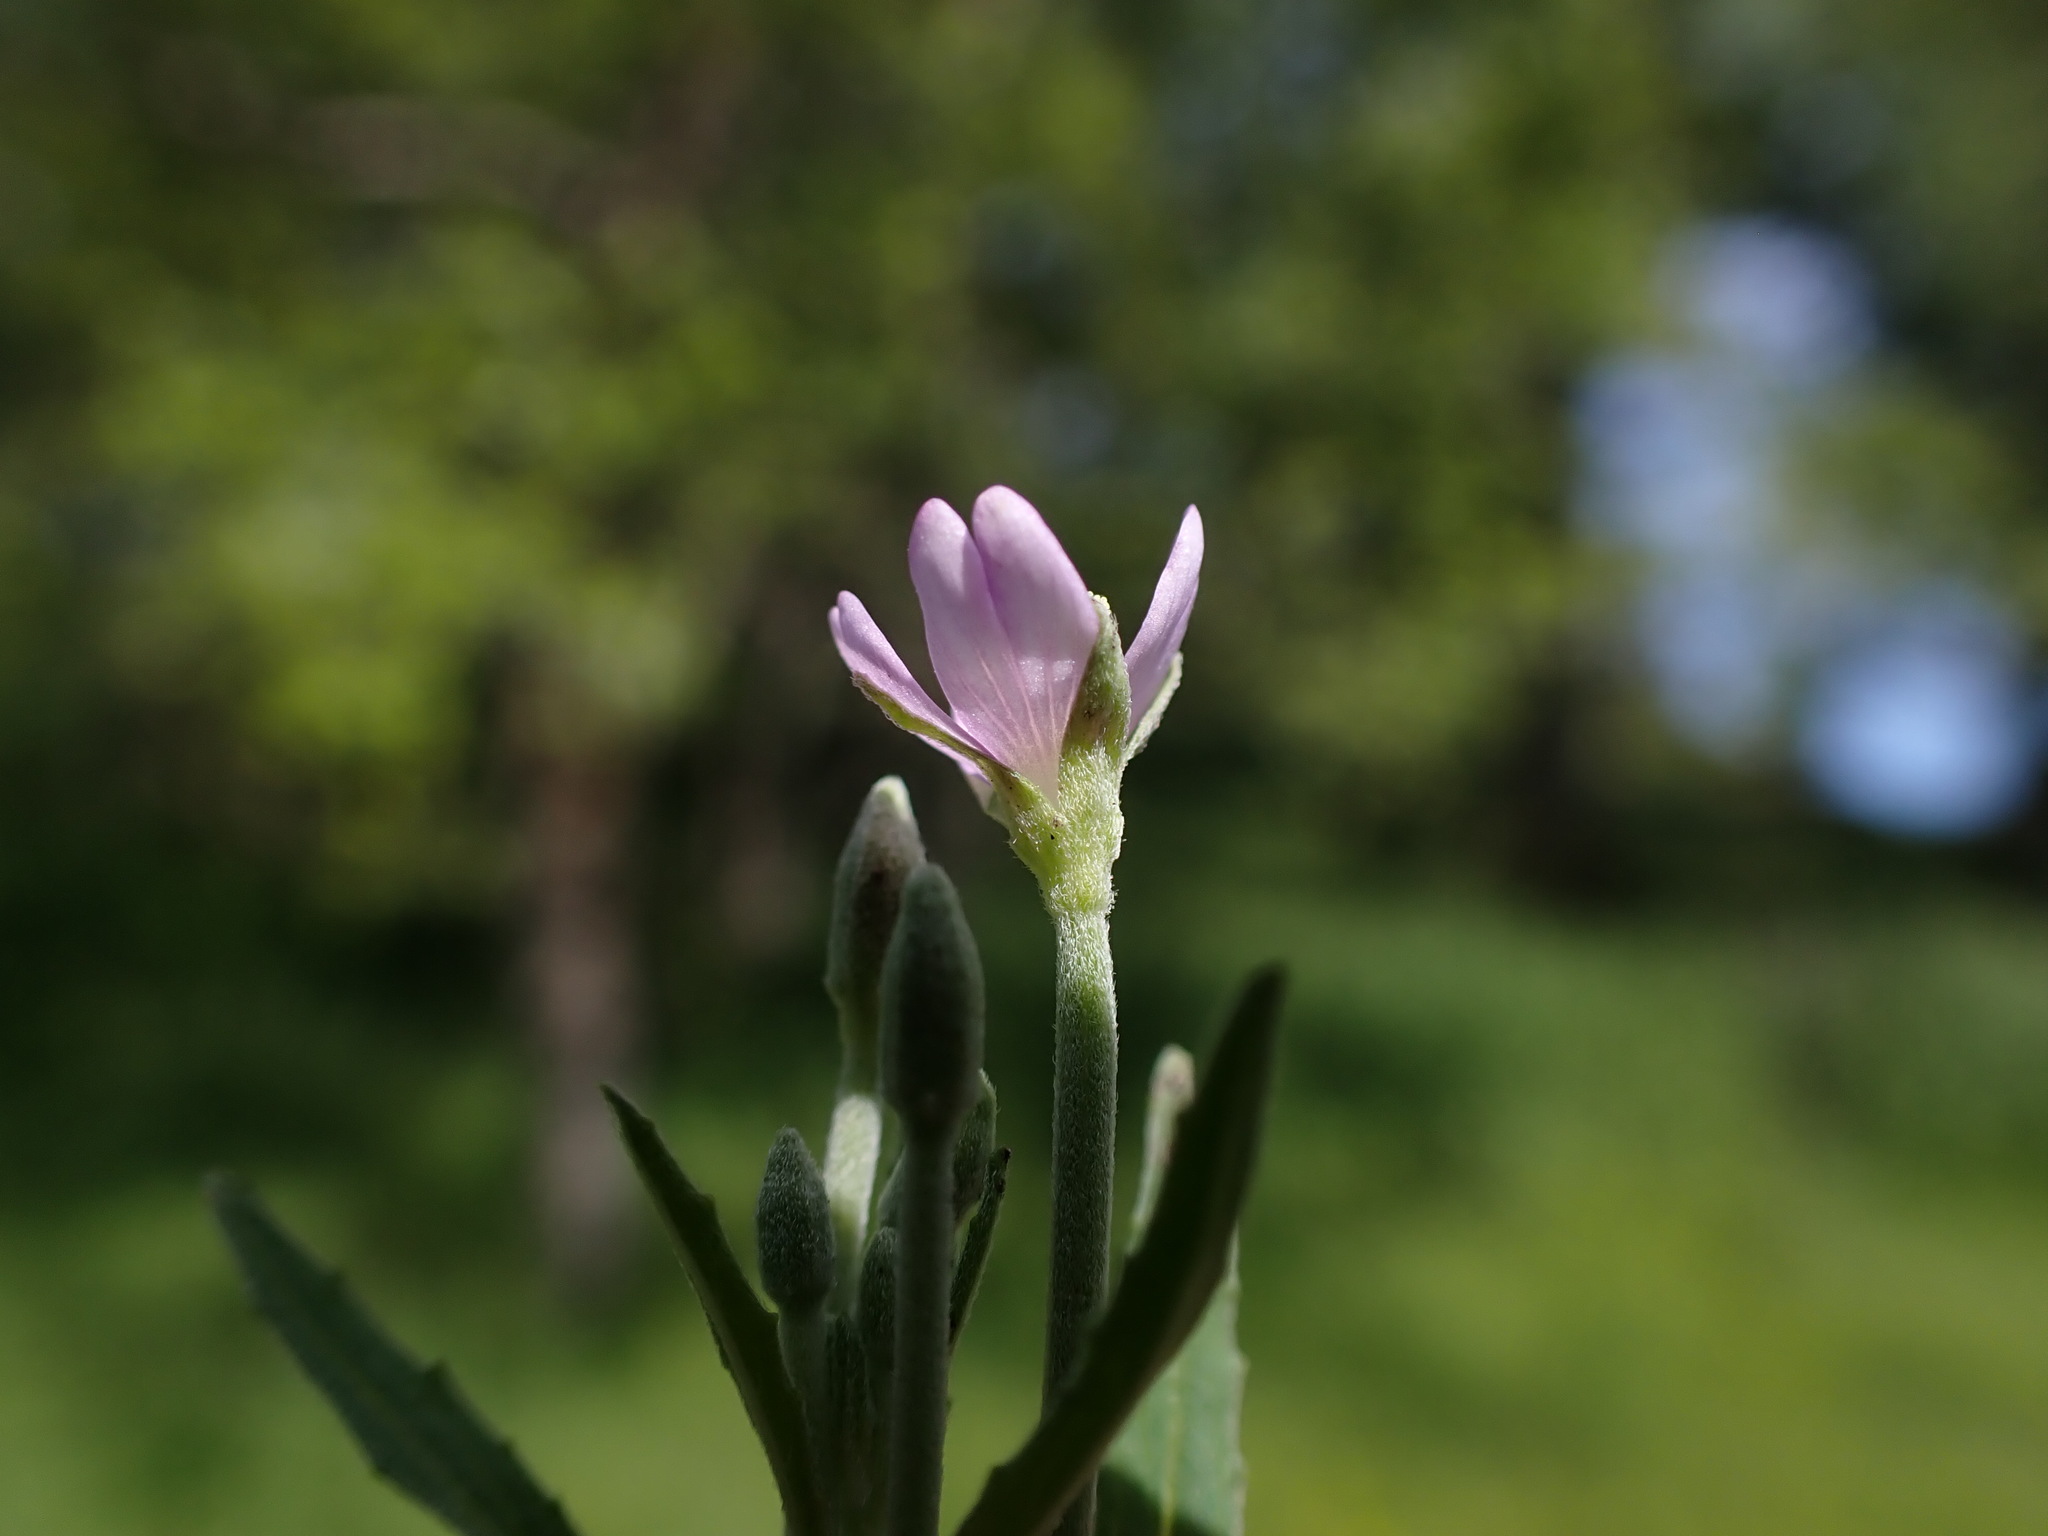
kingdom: Plantae
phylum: Tracheophyta
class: Magnoliopsida
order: Myrtales
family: Onagraceae
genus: Epilobium
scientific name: Epilobium tetragonum
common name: Square-stemmed willowherb
